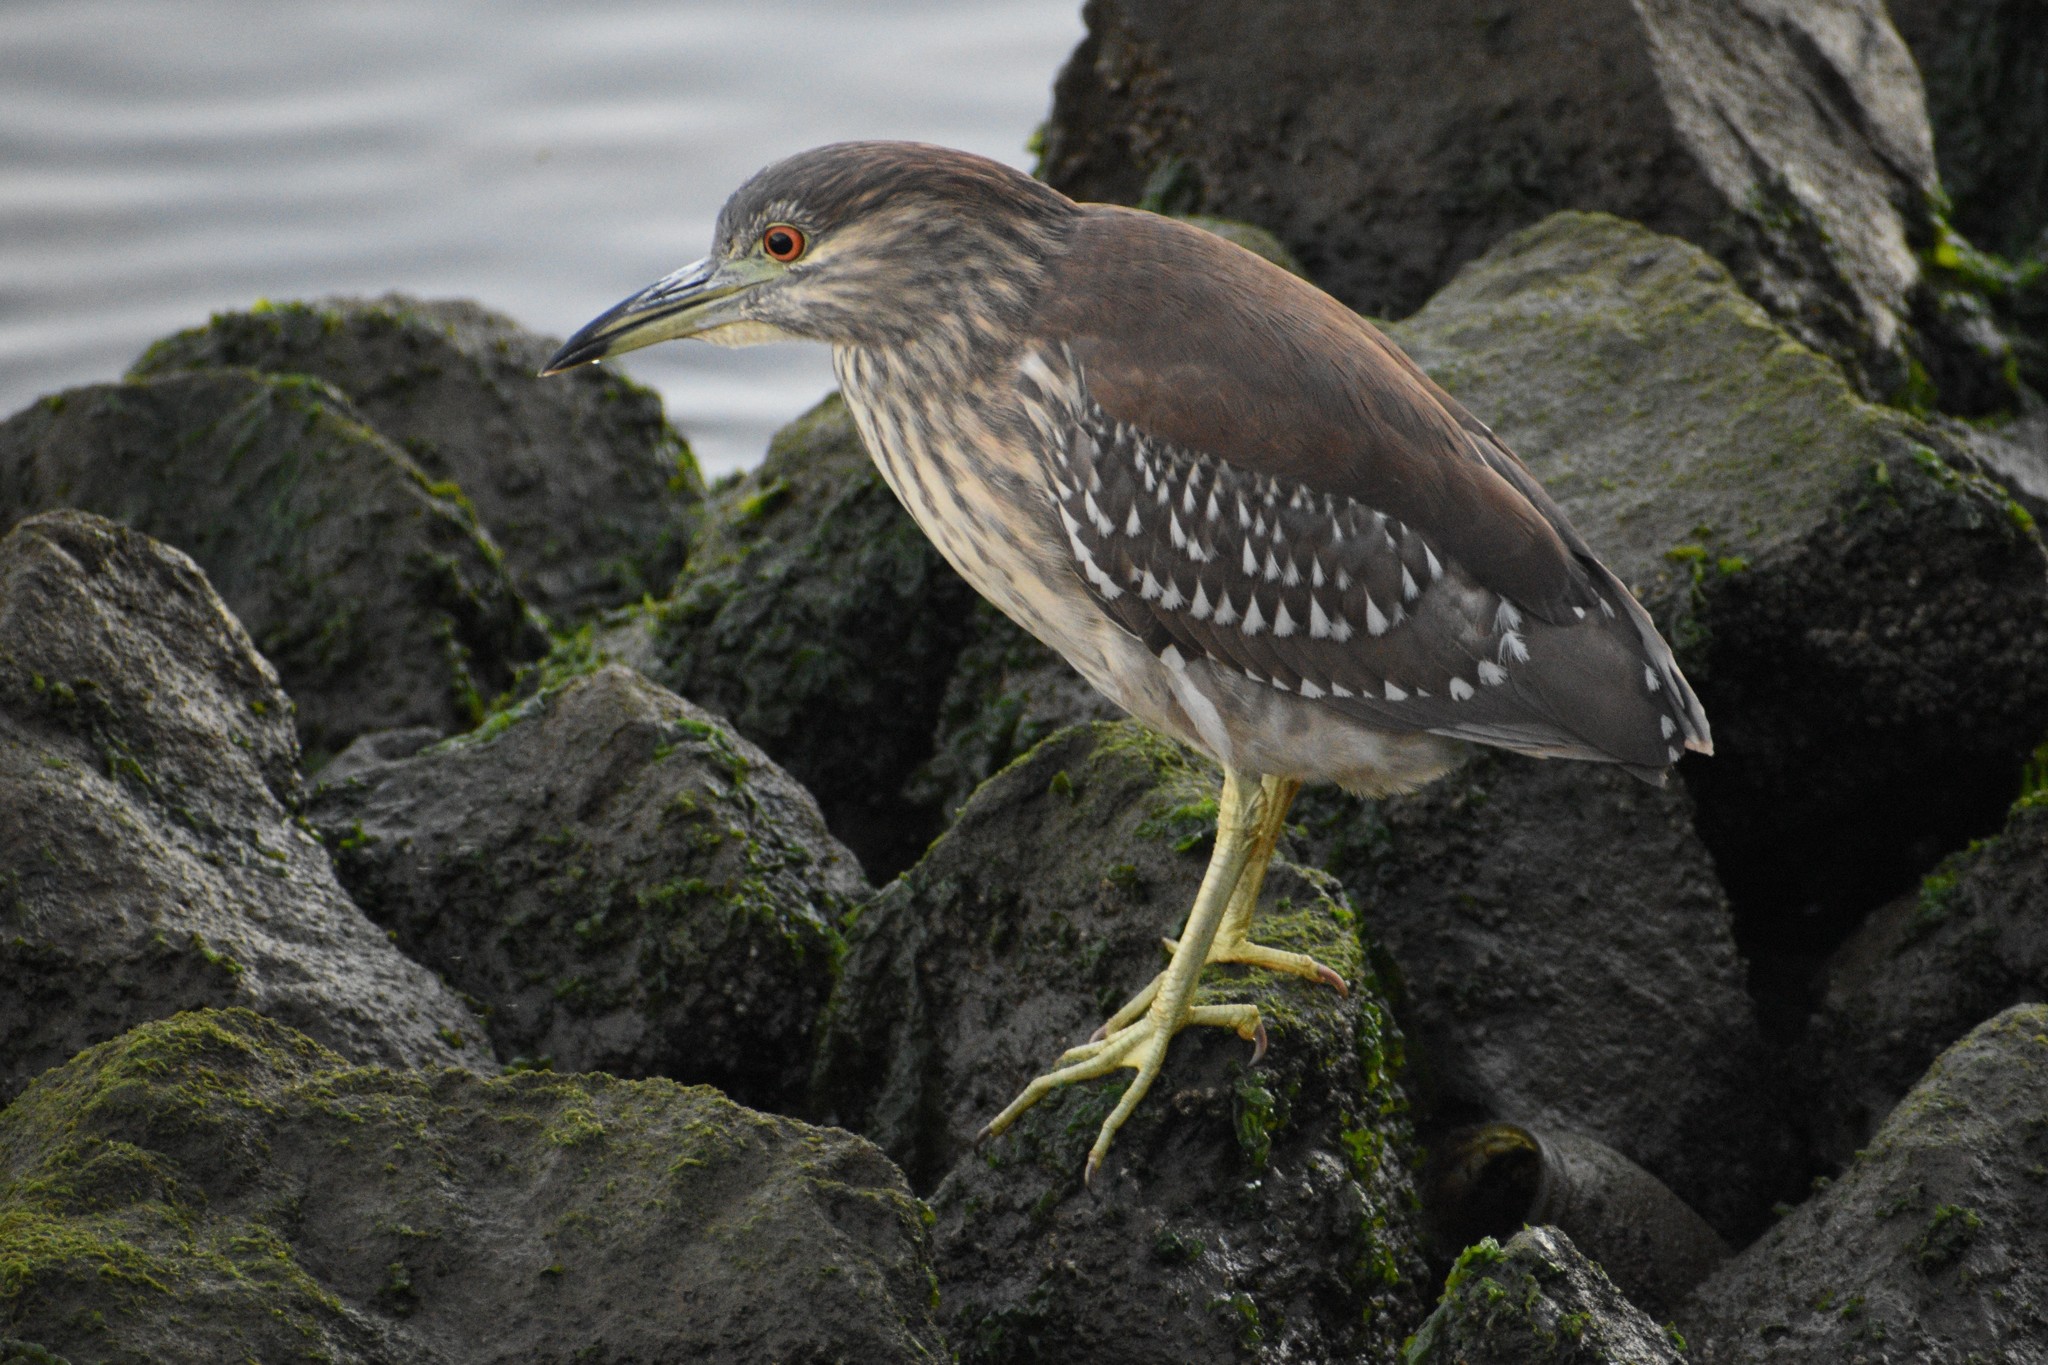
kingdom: Animalia
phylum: Chordata
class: Aves
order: Pelecaniformes
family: Ardeidae
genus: Nycticorax
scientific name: Nycticorax nycticorax
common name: Black-crowned night heron
